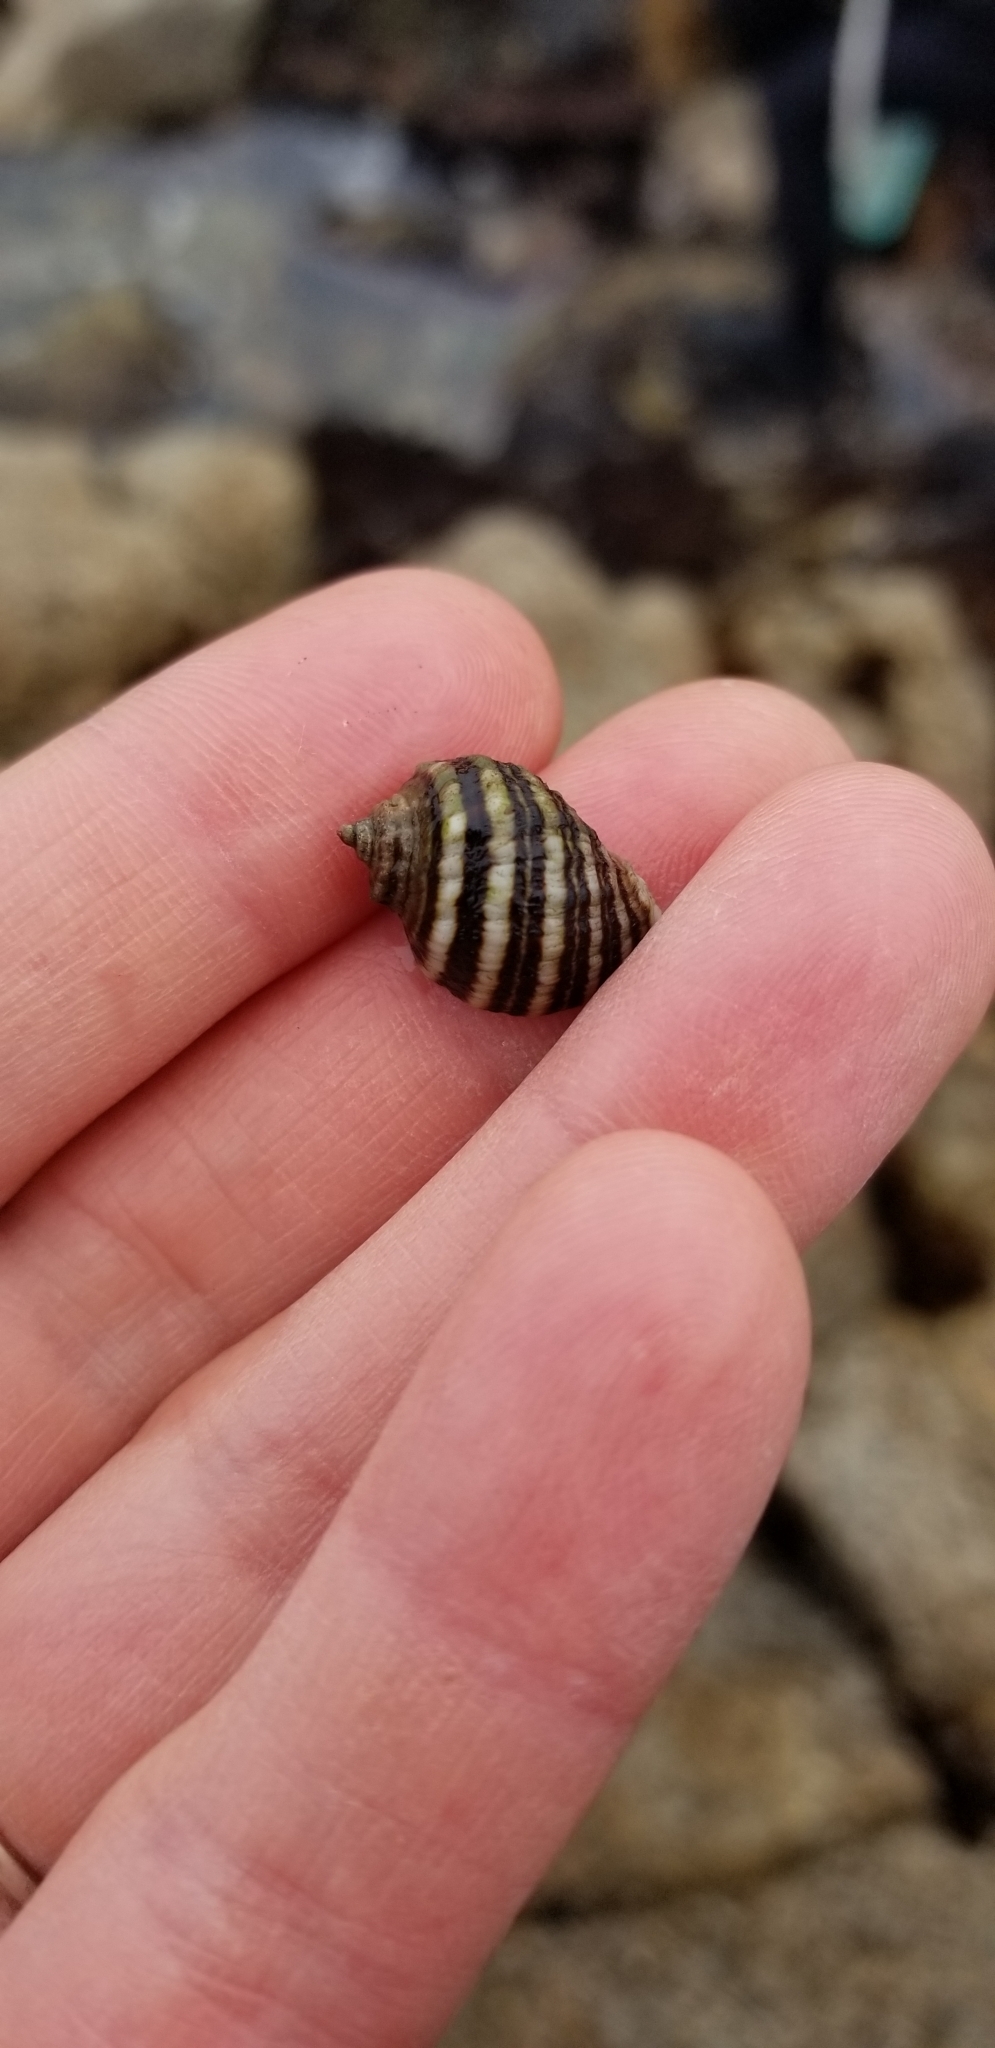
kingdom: Animalia
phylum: Mollusca
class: Gastropoda
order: Neogastropoda
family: Muricidae
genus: Nucella
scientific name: Nucella ostrina
